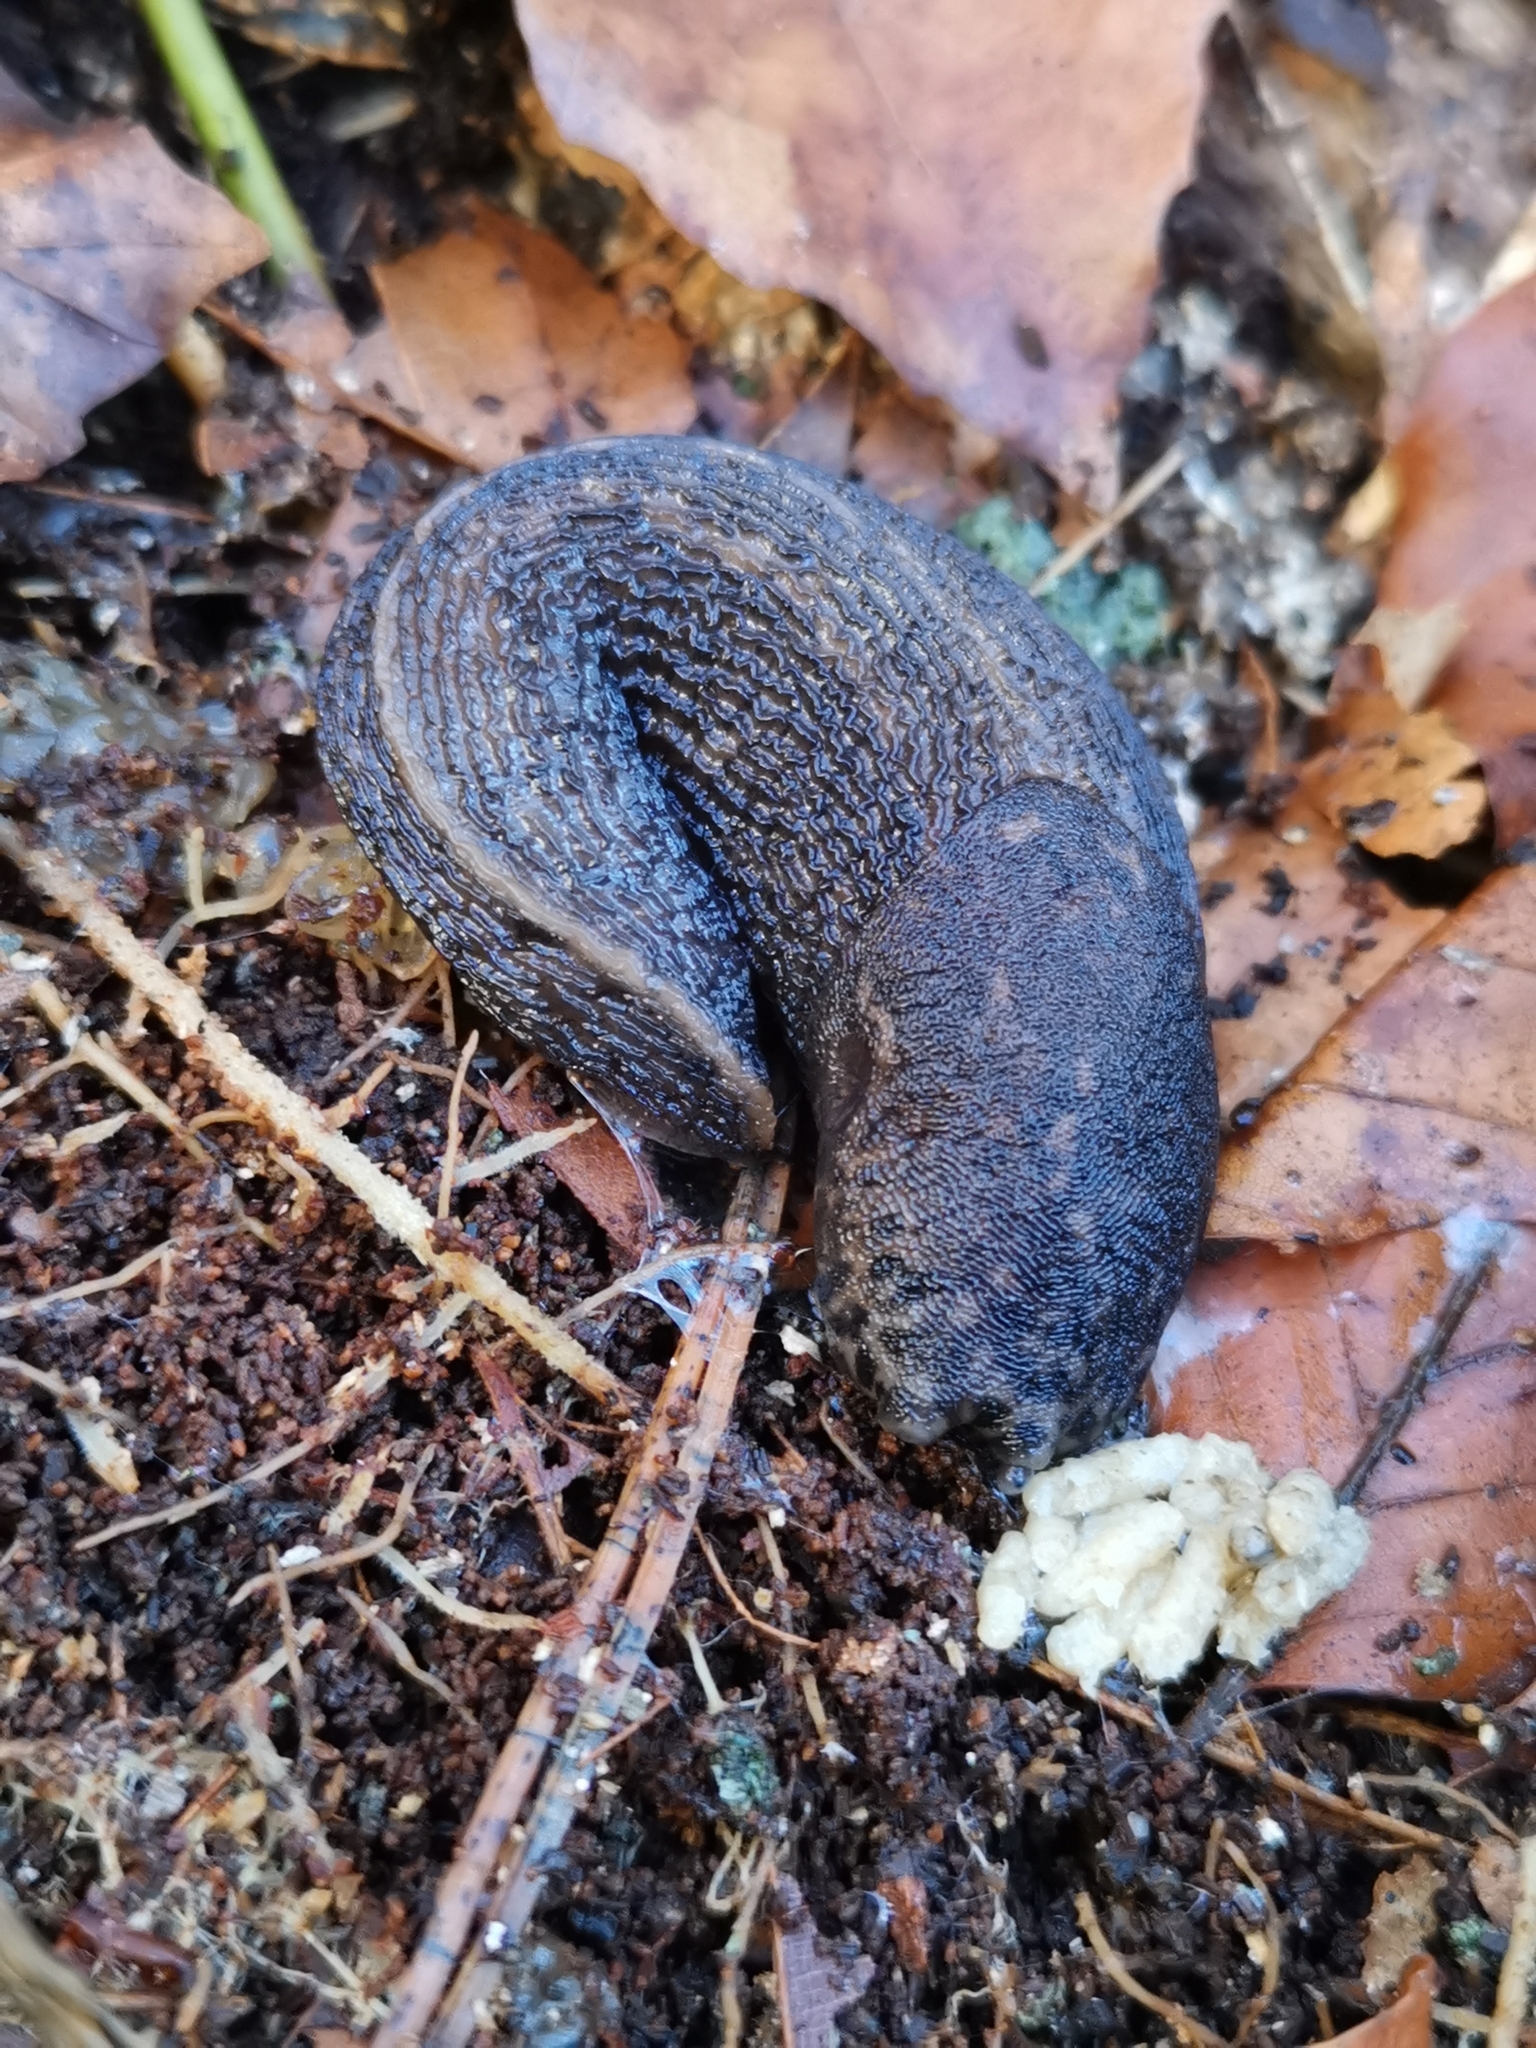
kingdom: Animalia
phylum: Mollusca
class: Gastropoda
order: Stylommatophora
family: Limacidae
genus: Limax
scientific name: Limax maximus
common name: Great grey slug
